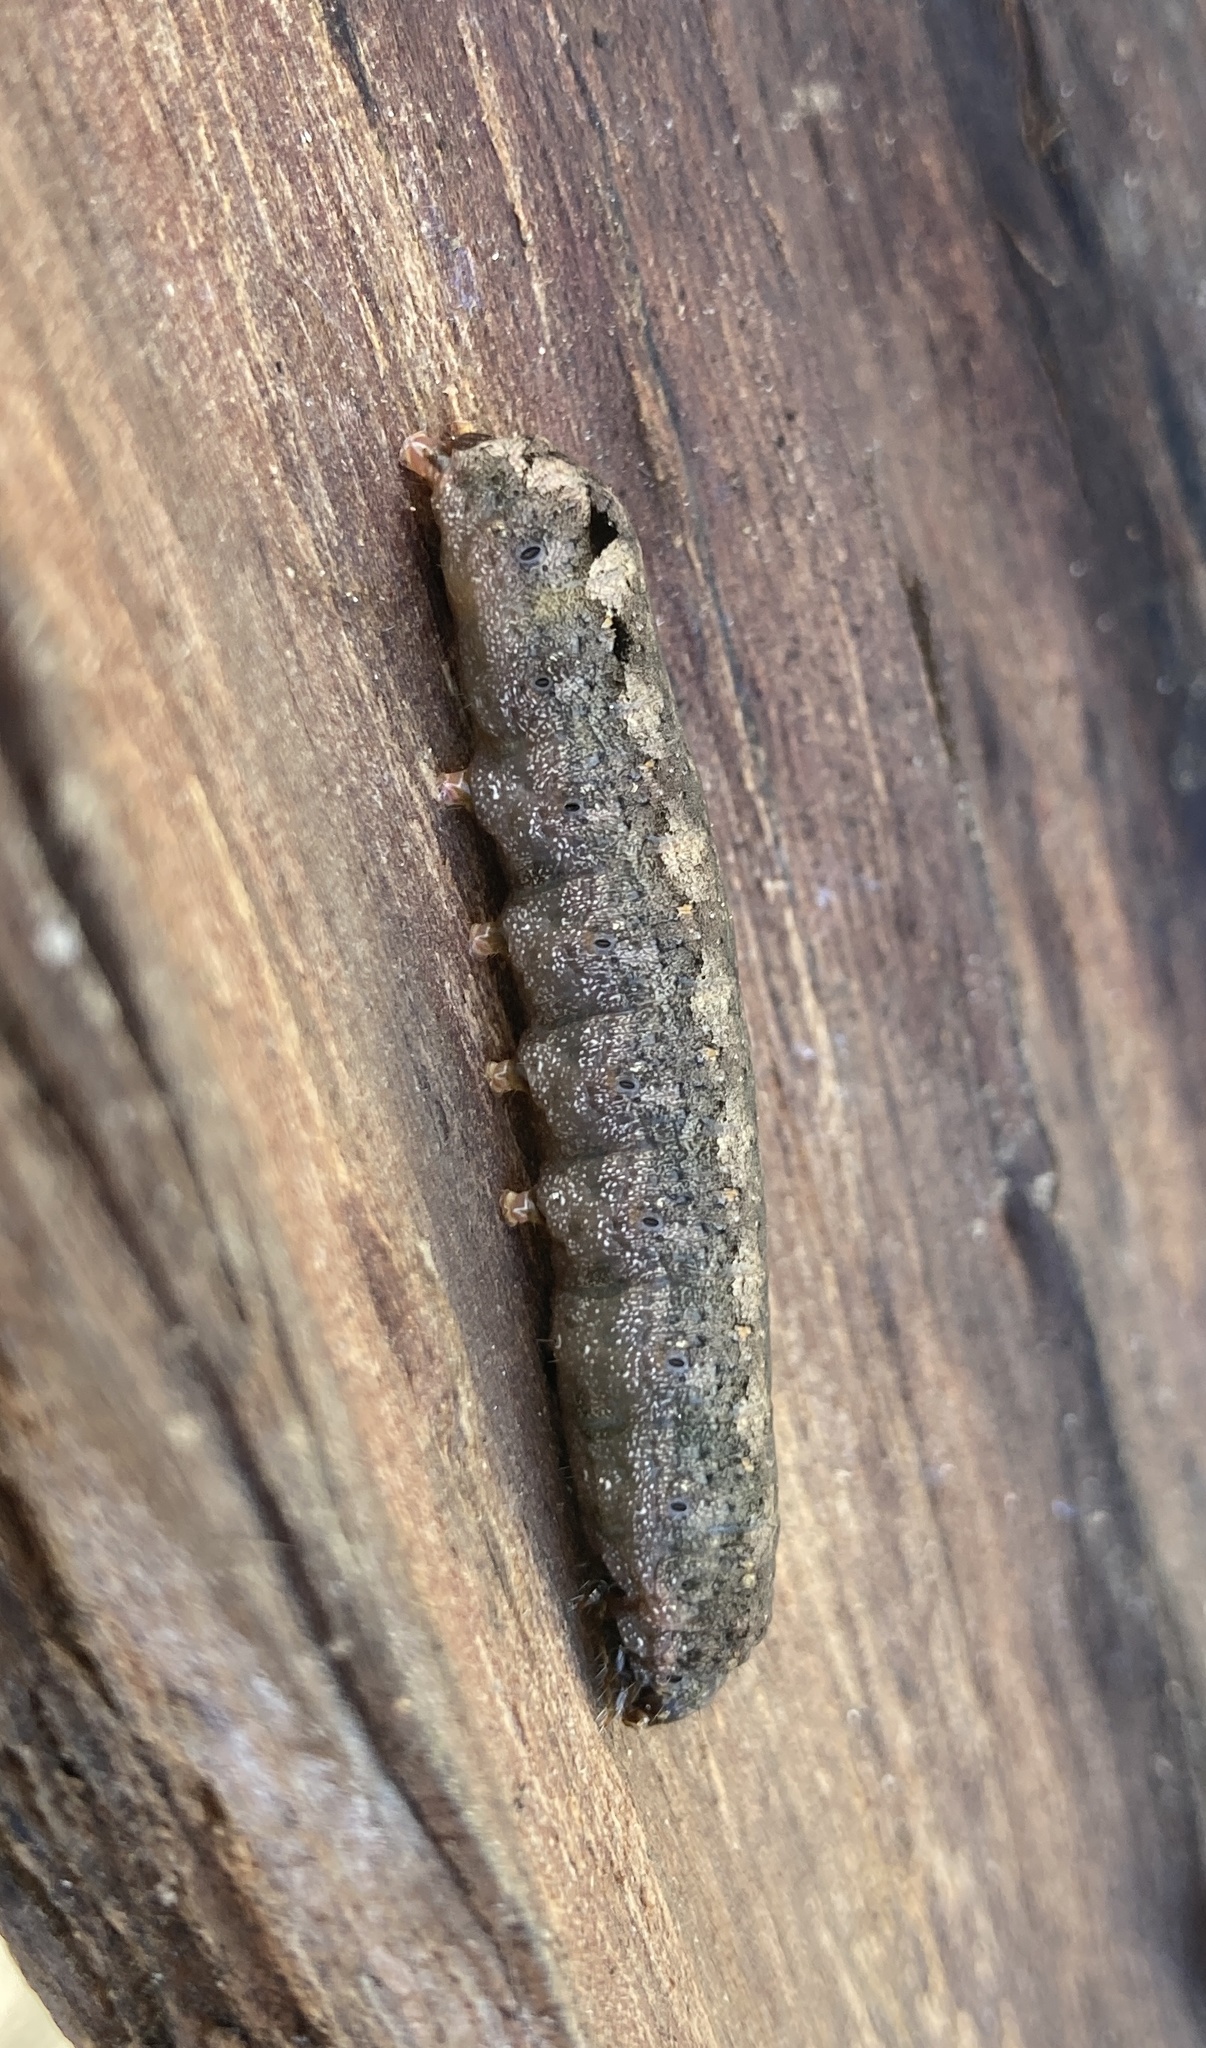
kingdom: Animalia
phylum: Arthropoda
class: Insecta
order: Lepidoptera
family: Noctuidae
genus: Spodoptera
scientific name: Spodoptera litura
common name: Asian cotton leafworm
